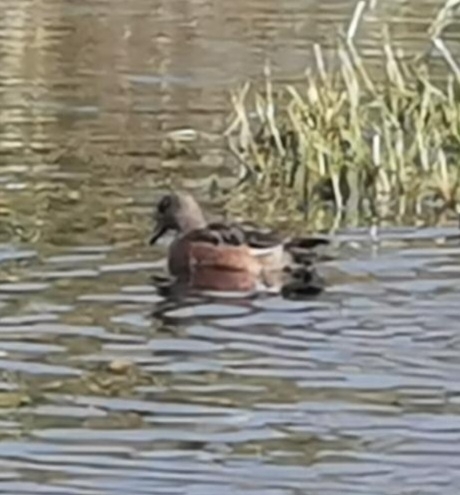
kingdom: Animalia
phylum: Chordata
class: Aves
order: Anseriformes
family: Anatidae
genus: Mareca
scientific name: Mareca americana
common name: American wigeon
